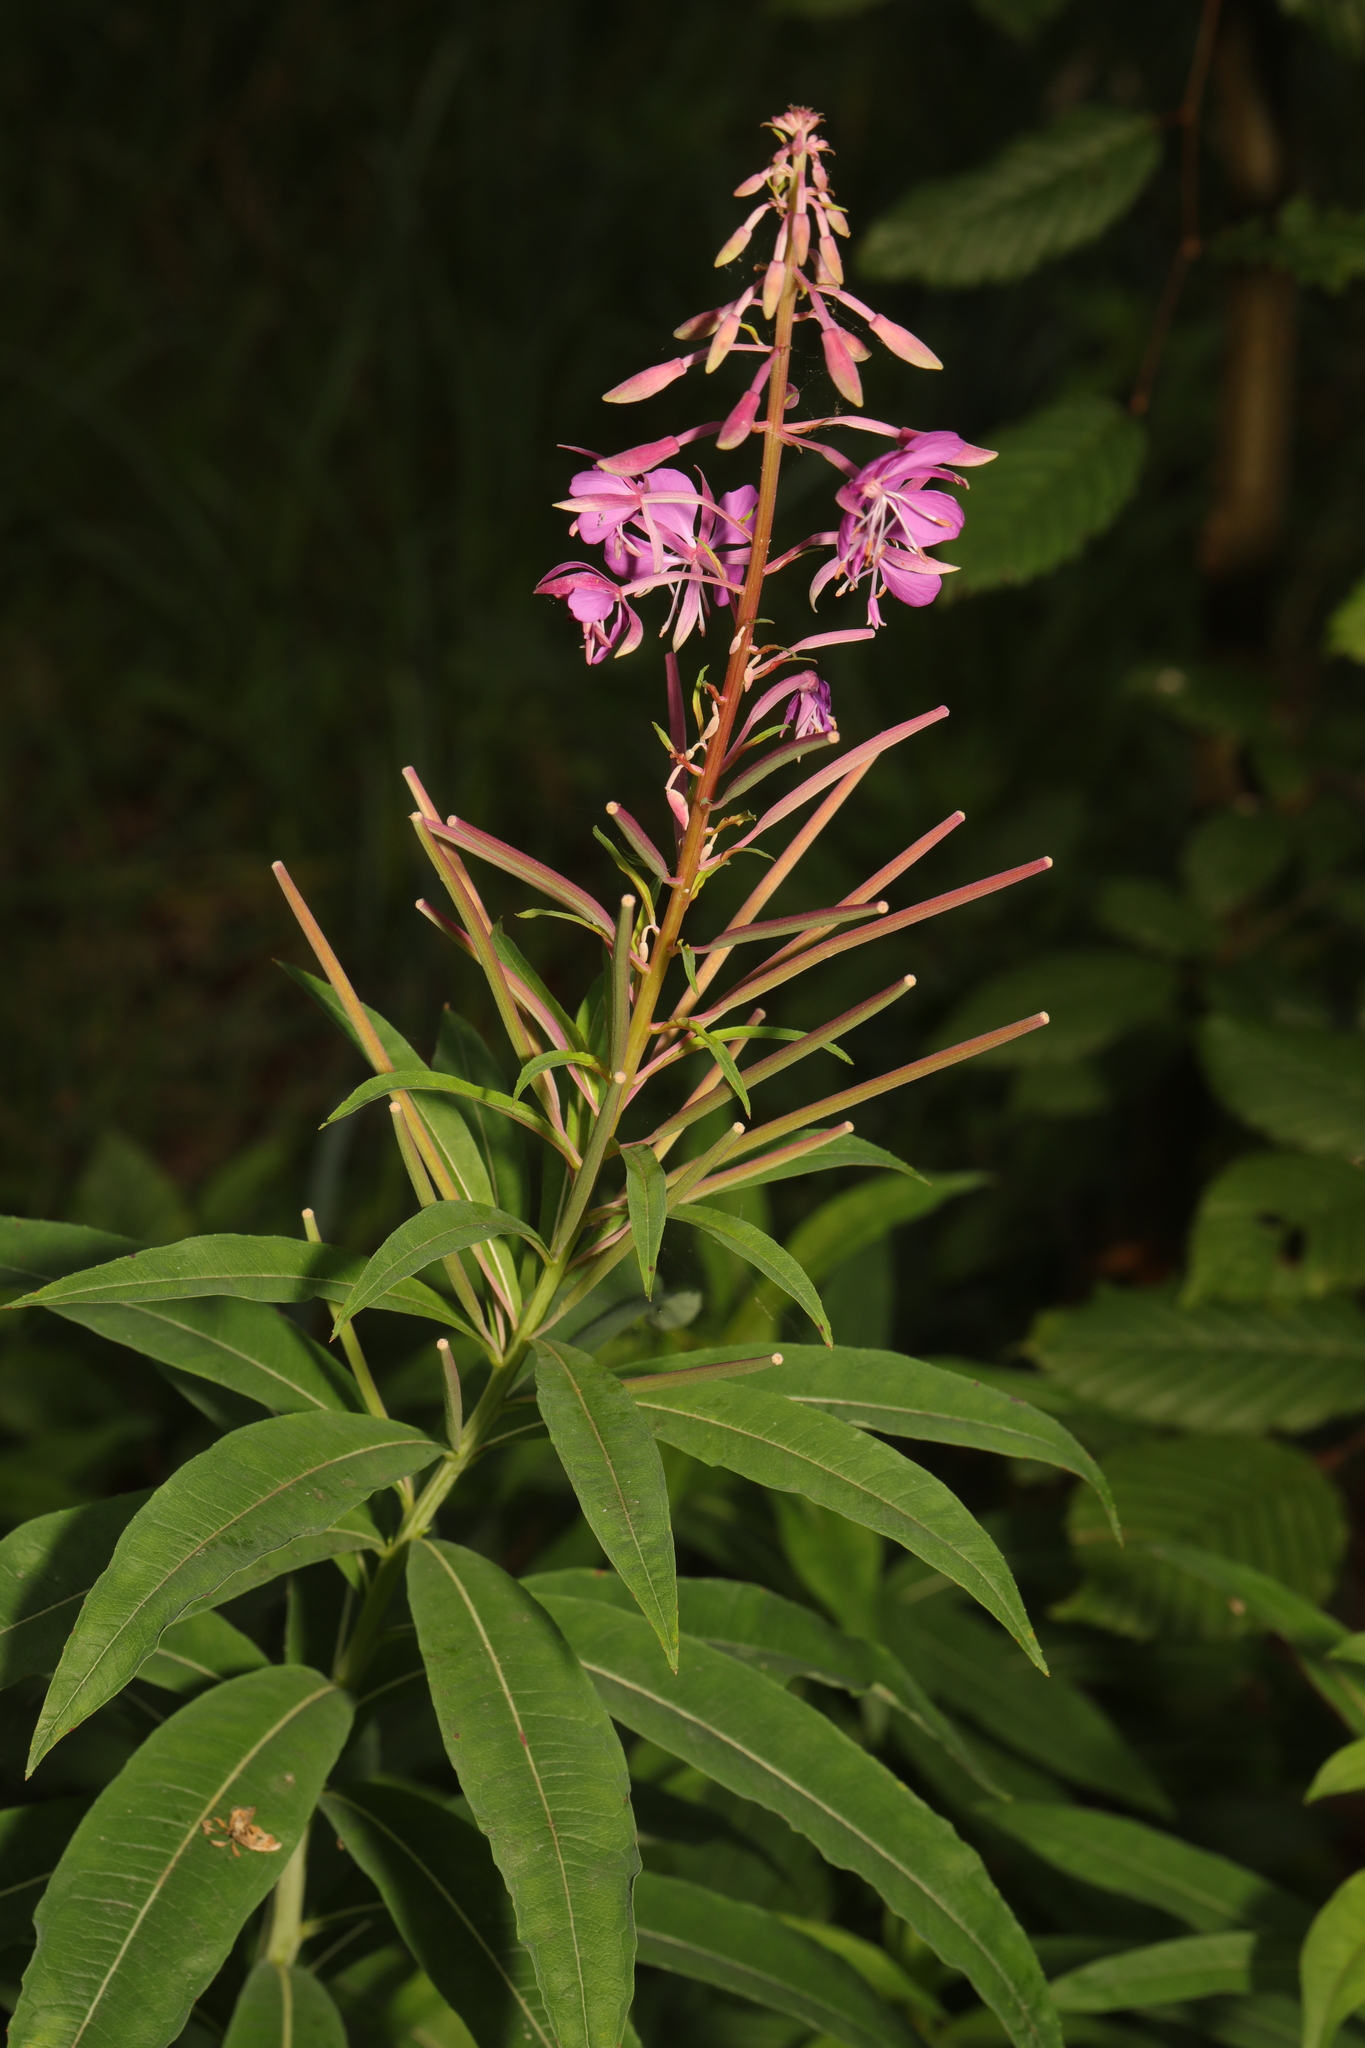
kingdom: Plantae
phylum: Tracheophyta
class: Magnoliopsida
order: Myrtales
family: Onagraceae
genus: Chamaenerion
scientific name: Chamaenerion angustifolium
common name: Fireweed
